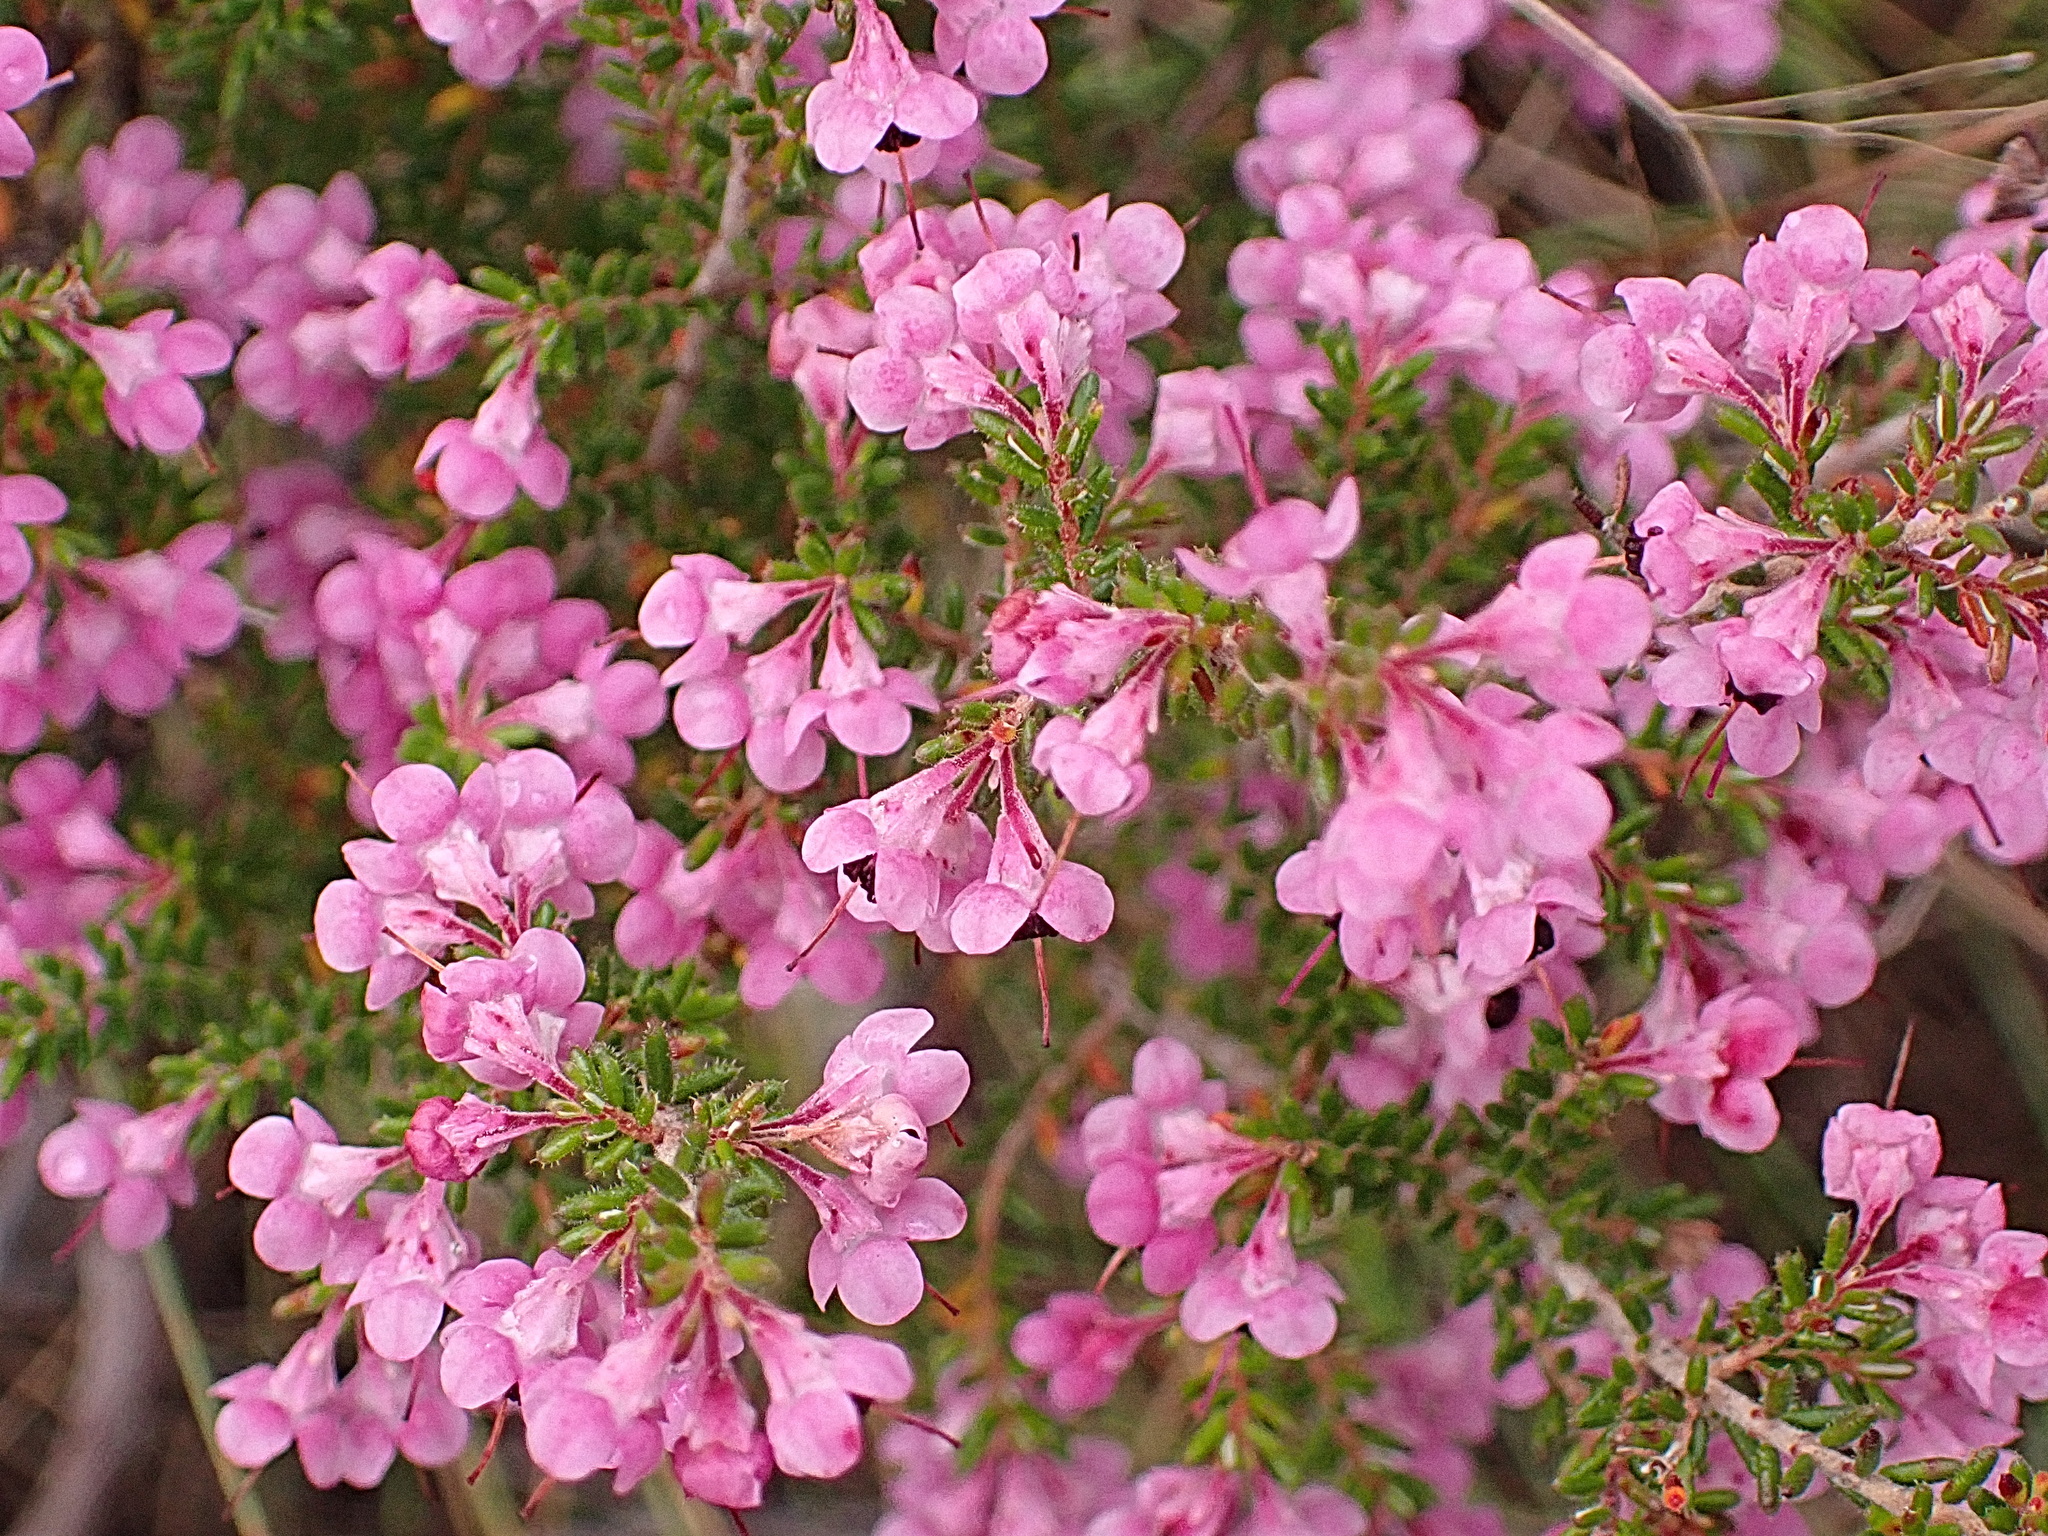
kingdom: Plantae
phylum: Tracheophyta
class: Magnoliopsida
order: Ericales
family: Ericaceae
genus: Erica
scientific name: Erica melanthera
